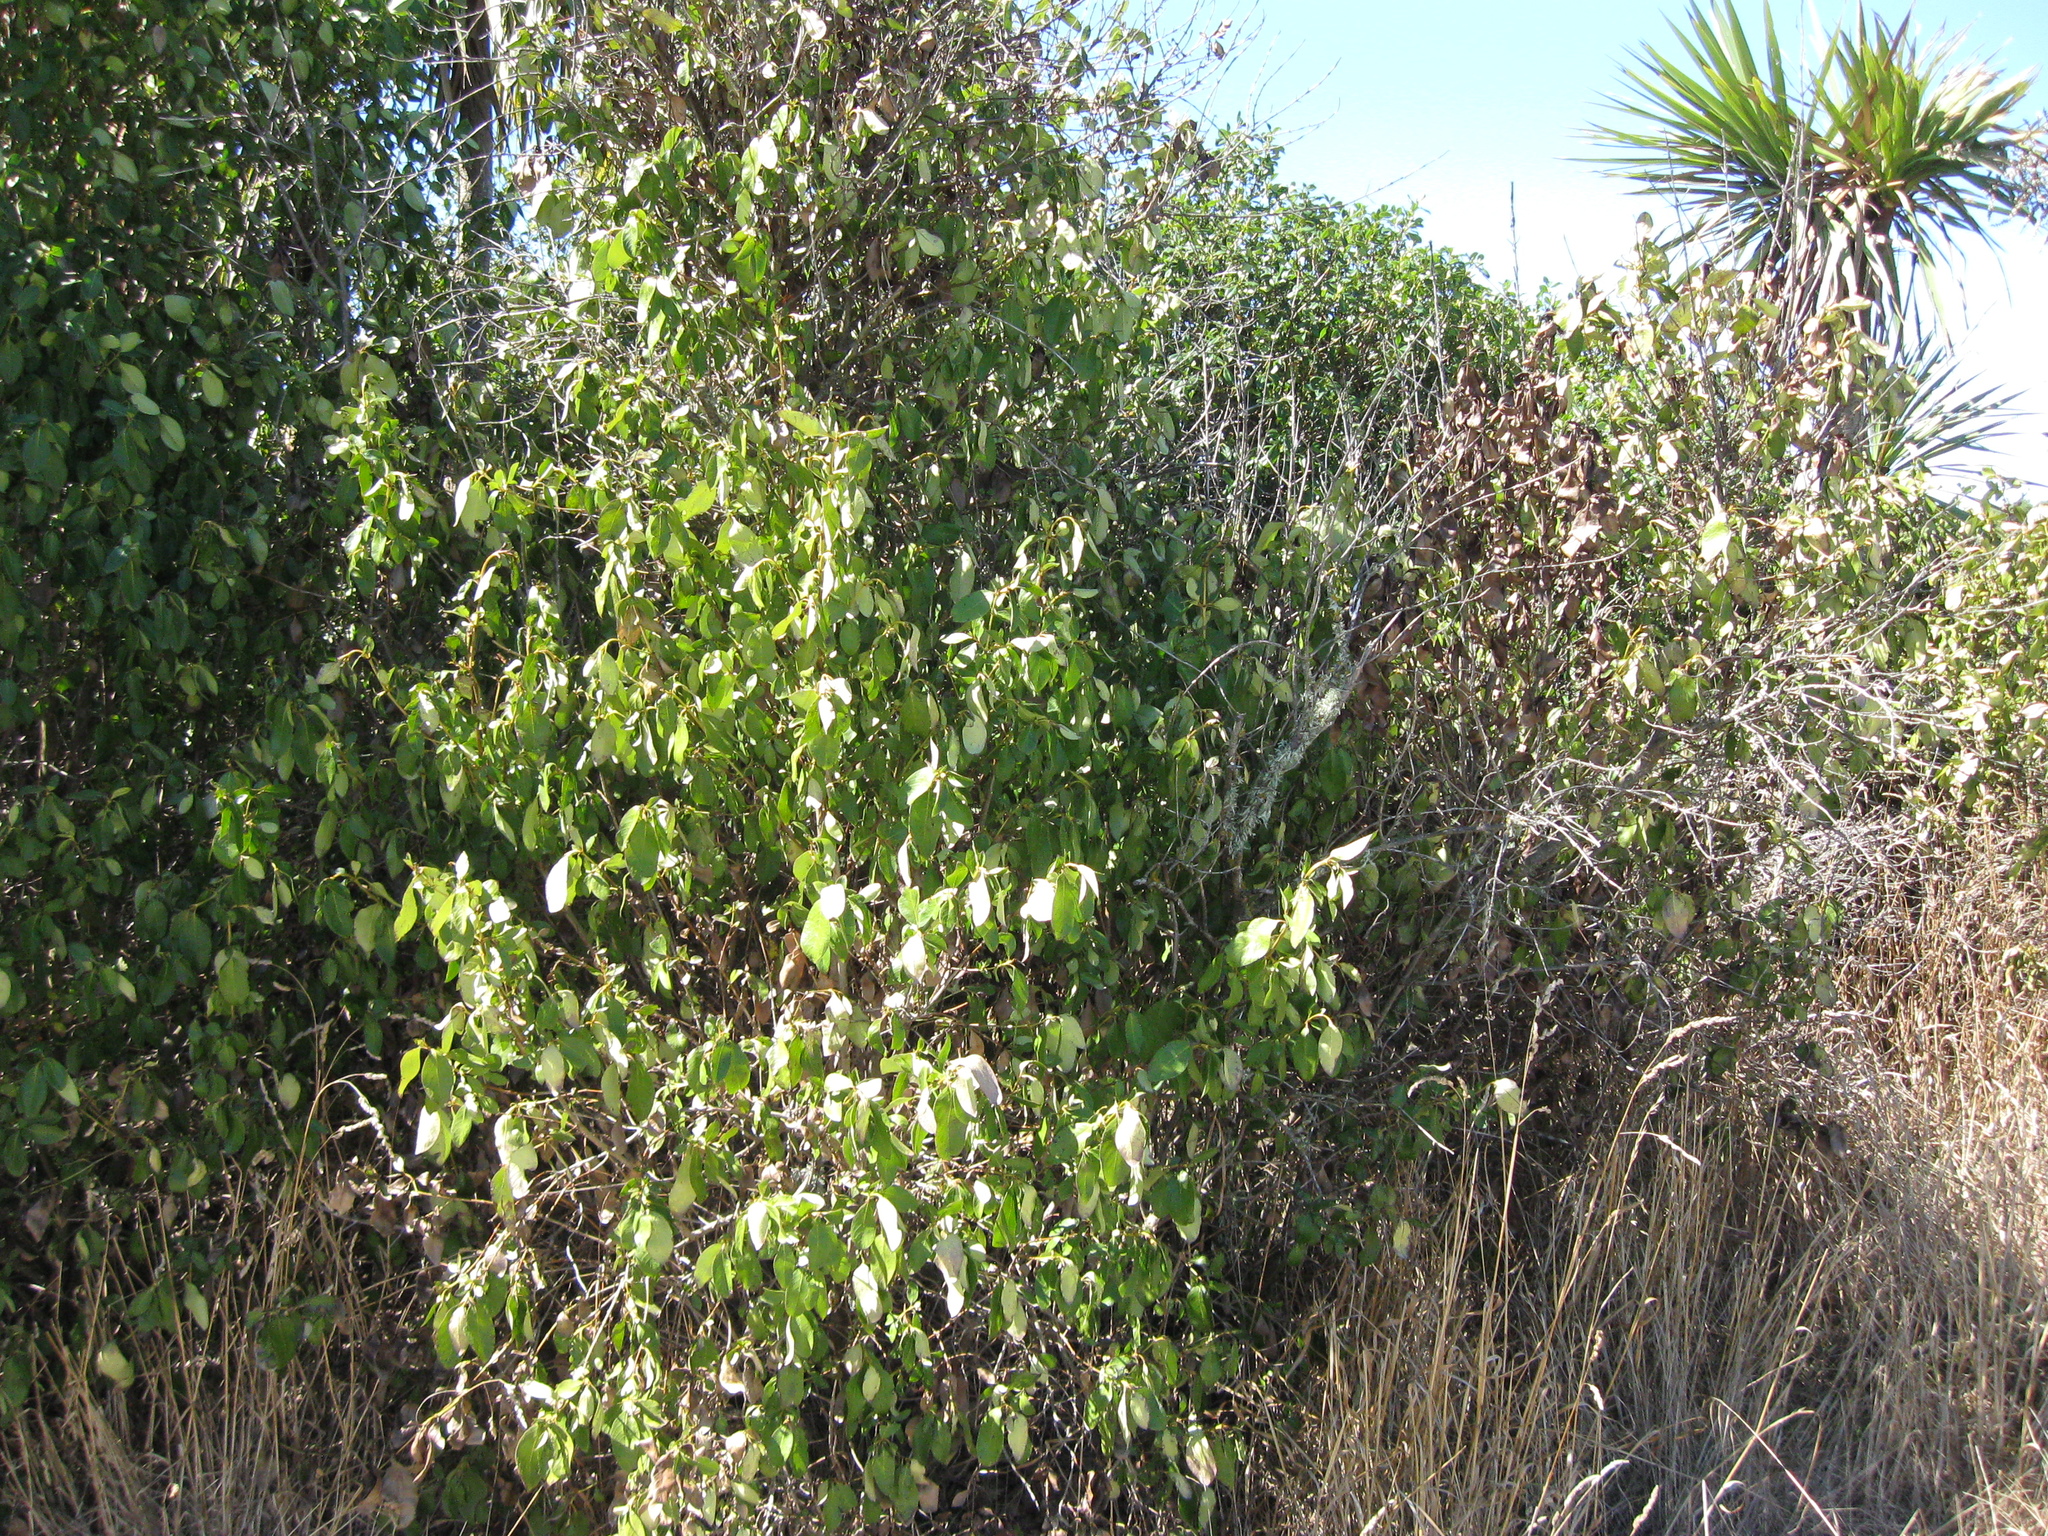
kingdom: Plantae
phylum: Tracheophyta
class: Magnoliopsida
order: Gentianales
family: Rubiaceae
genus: Coprosma
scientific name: Coprosma robusta
